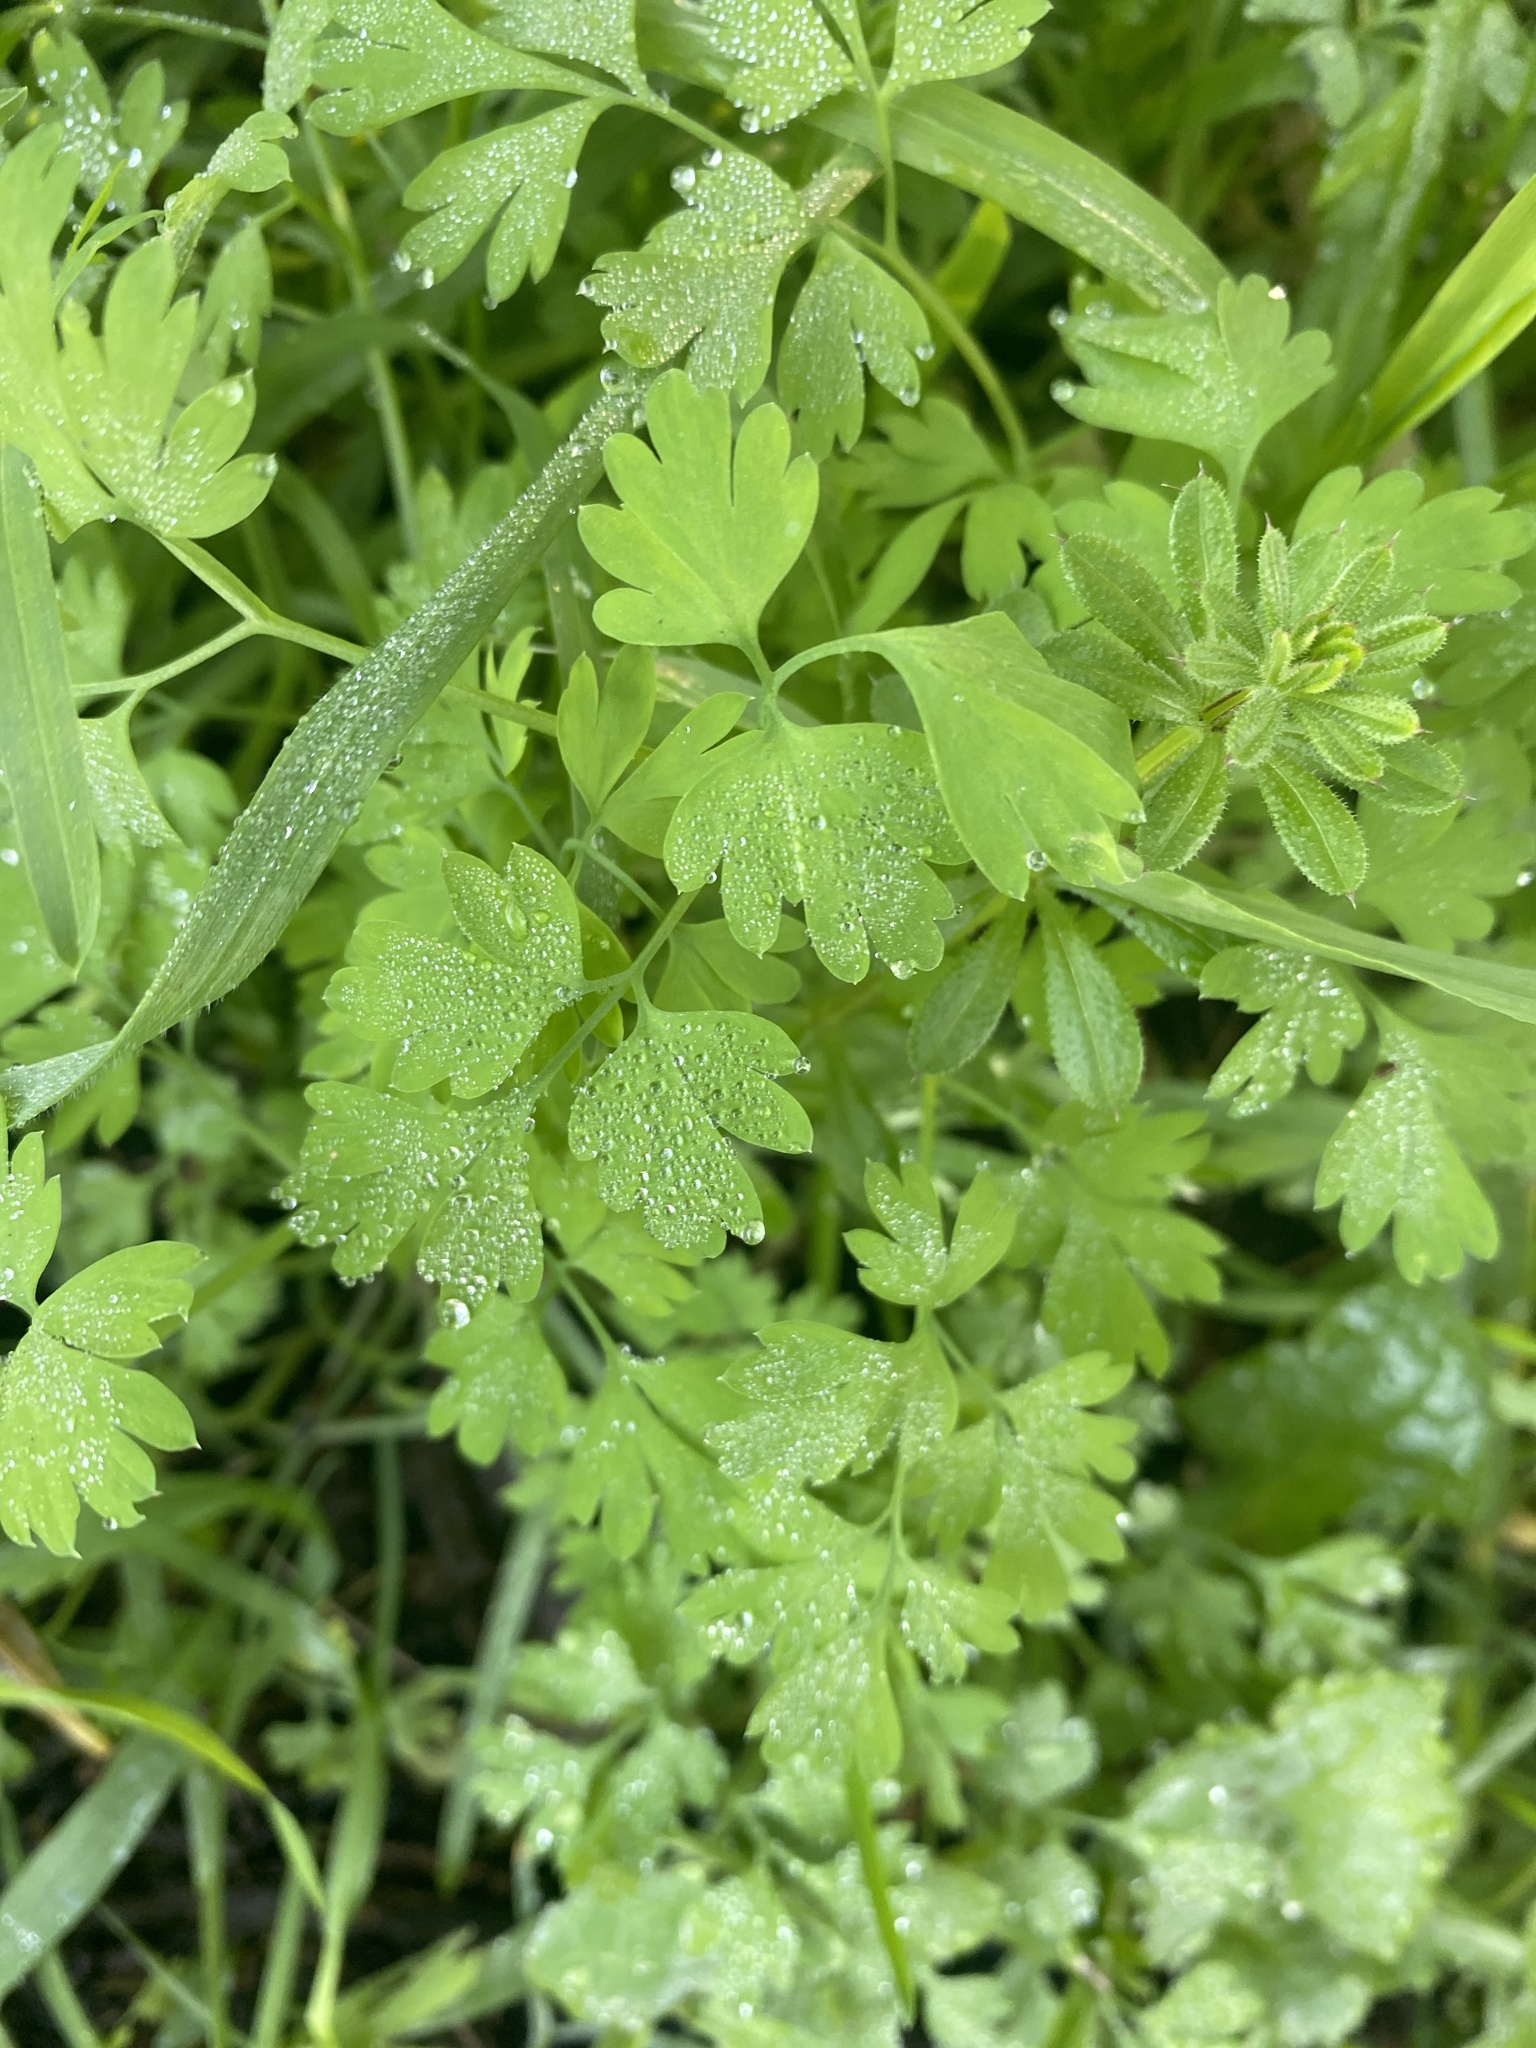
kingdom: Plantae
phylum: Tracheophyta
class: Magnoliopsida
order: Ranunculales
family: Papaveraceae
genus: Fumaria
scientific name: Fumaria
